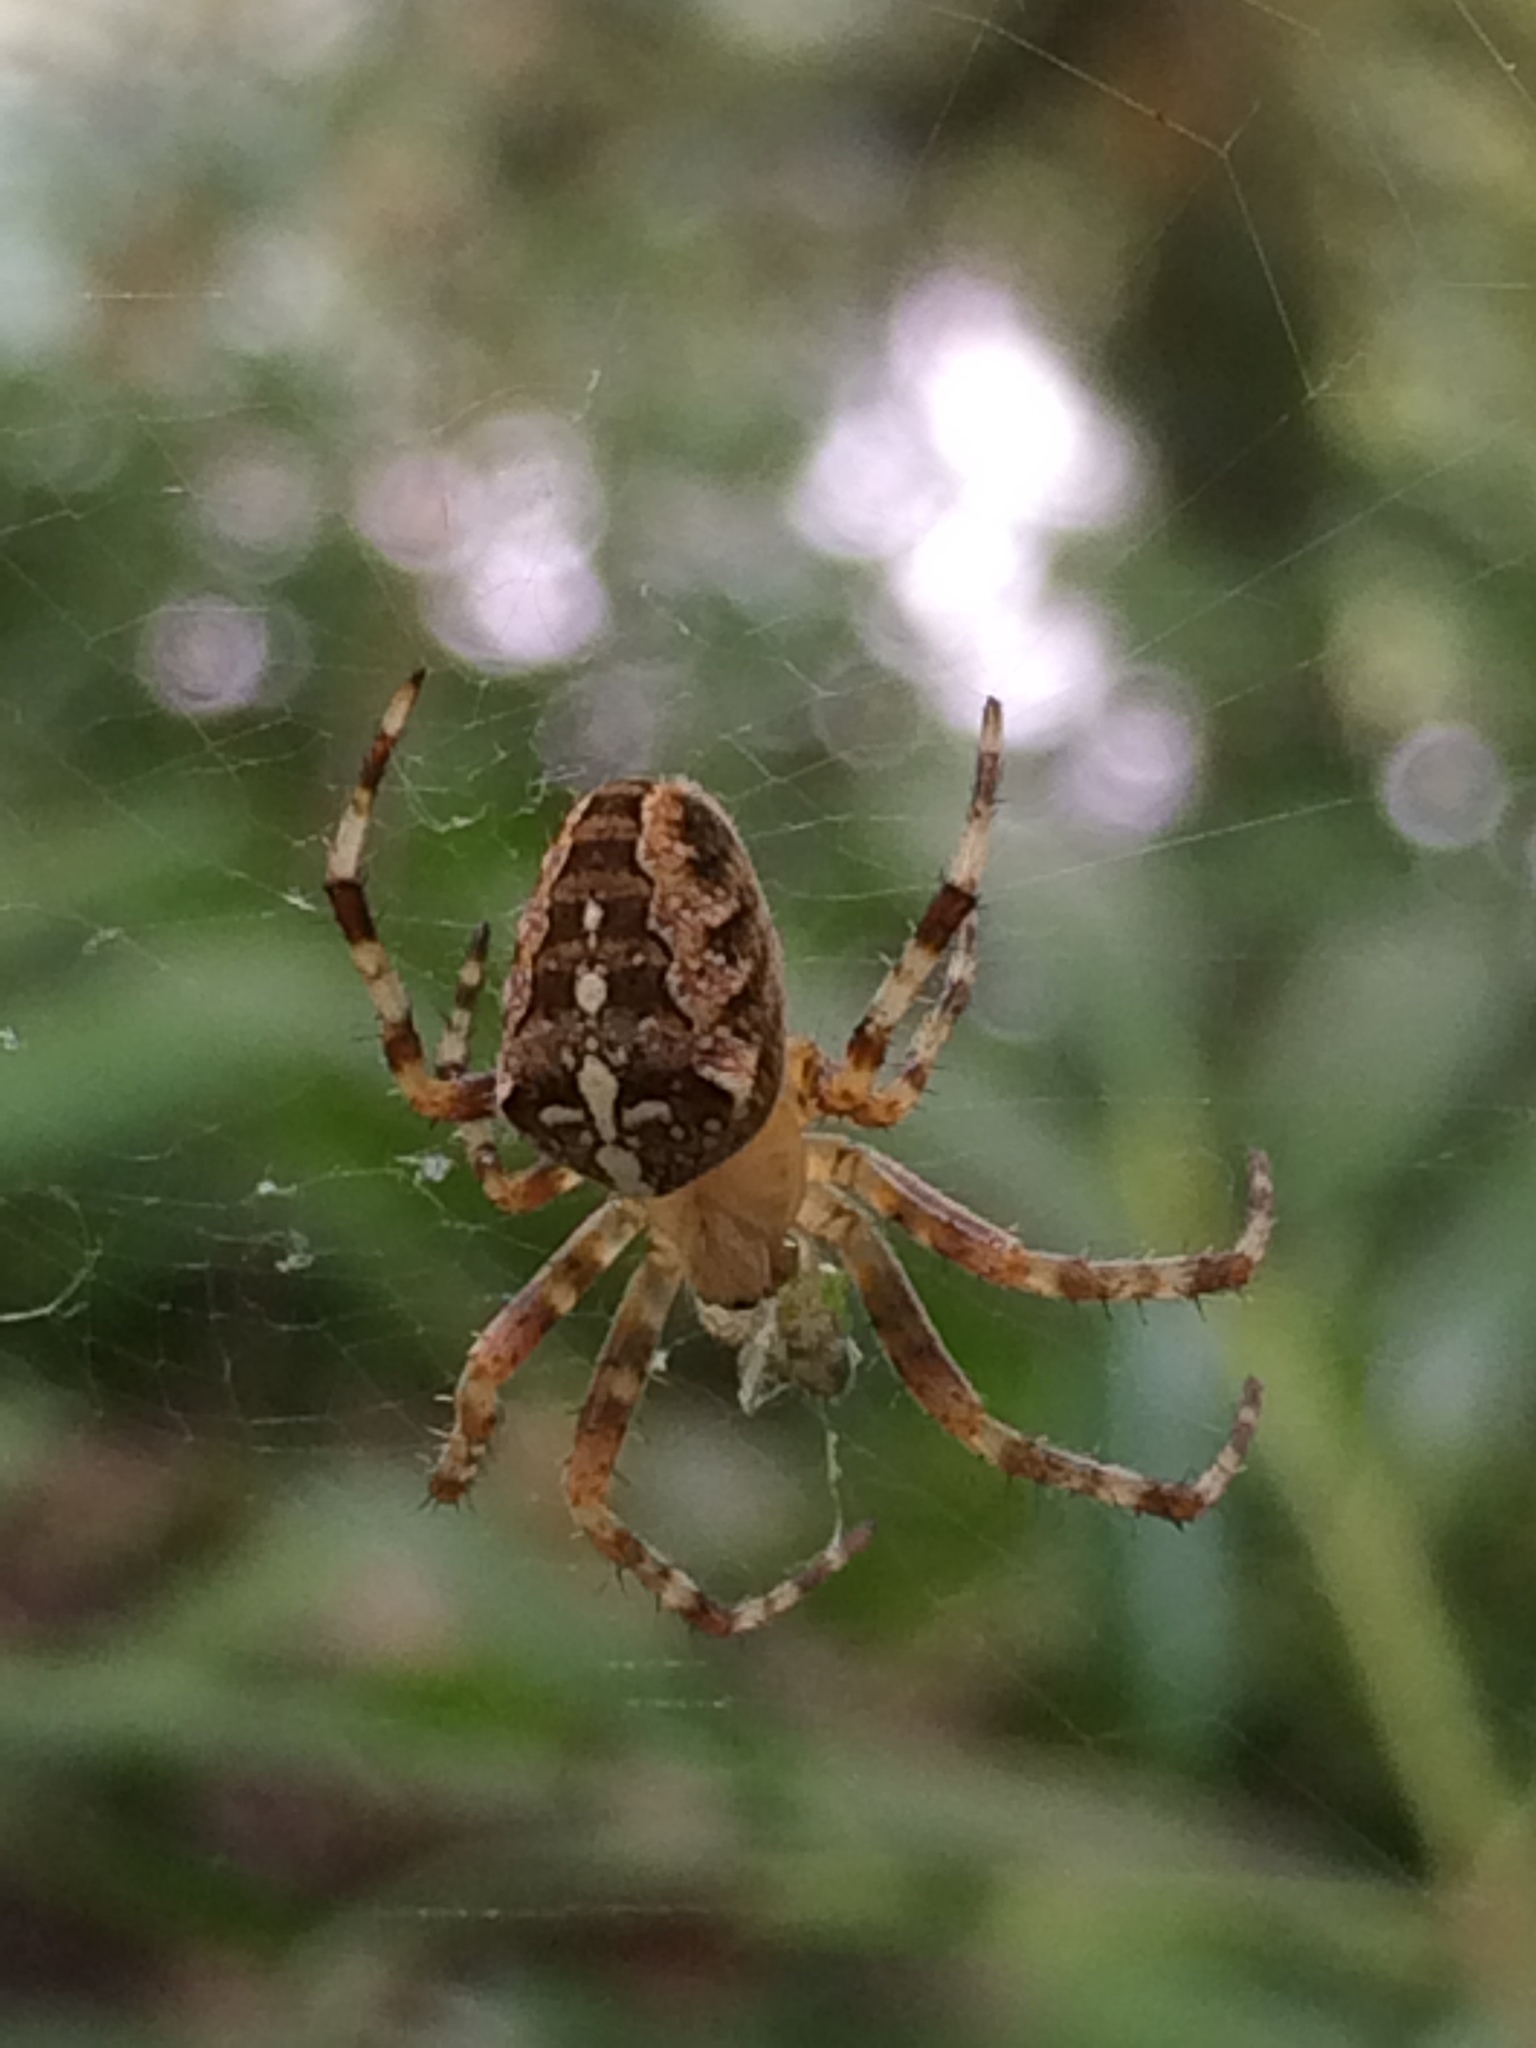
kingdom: Animalia
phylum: Arthropoda
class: Arachnida
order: Araneae
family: Araneidae
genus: Araneus
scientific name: Araneus diadematus
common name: Cross orbweaver
